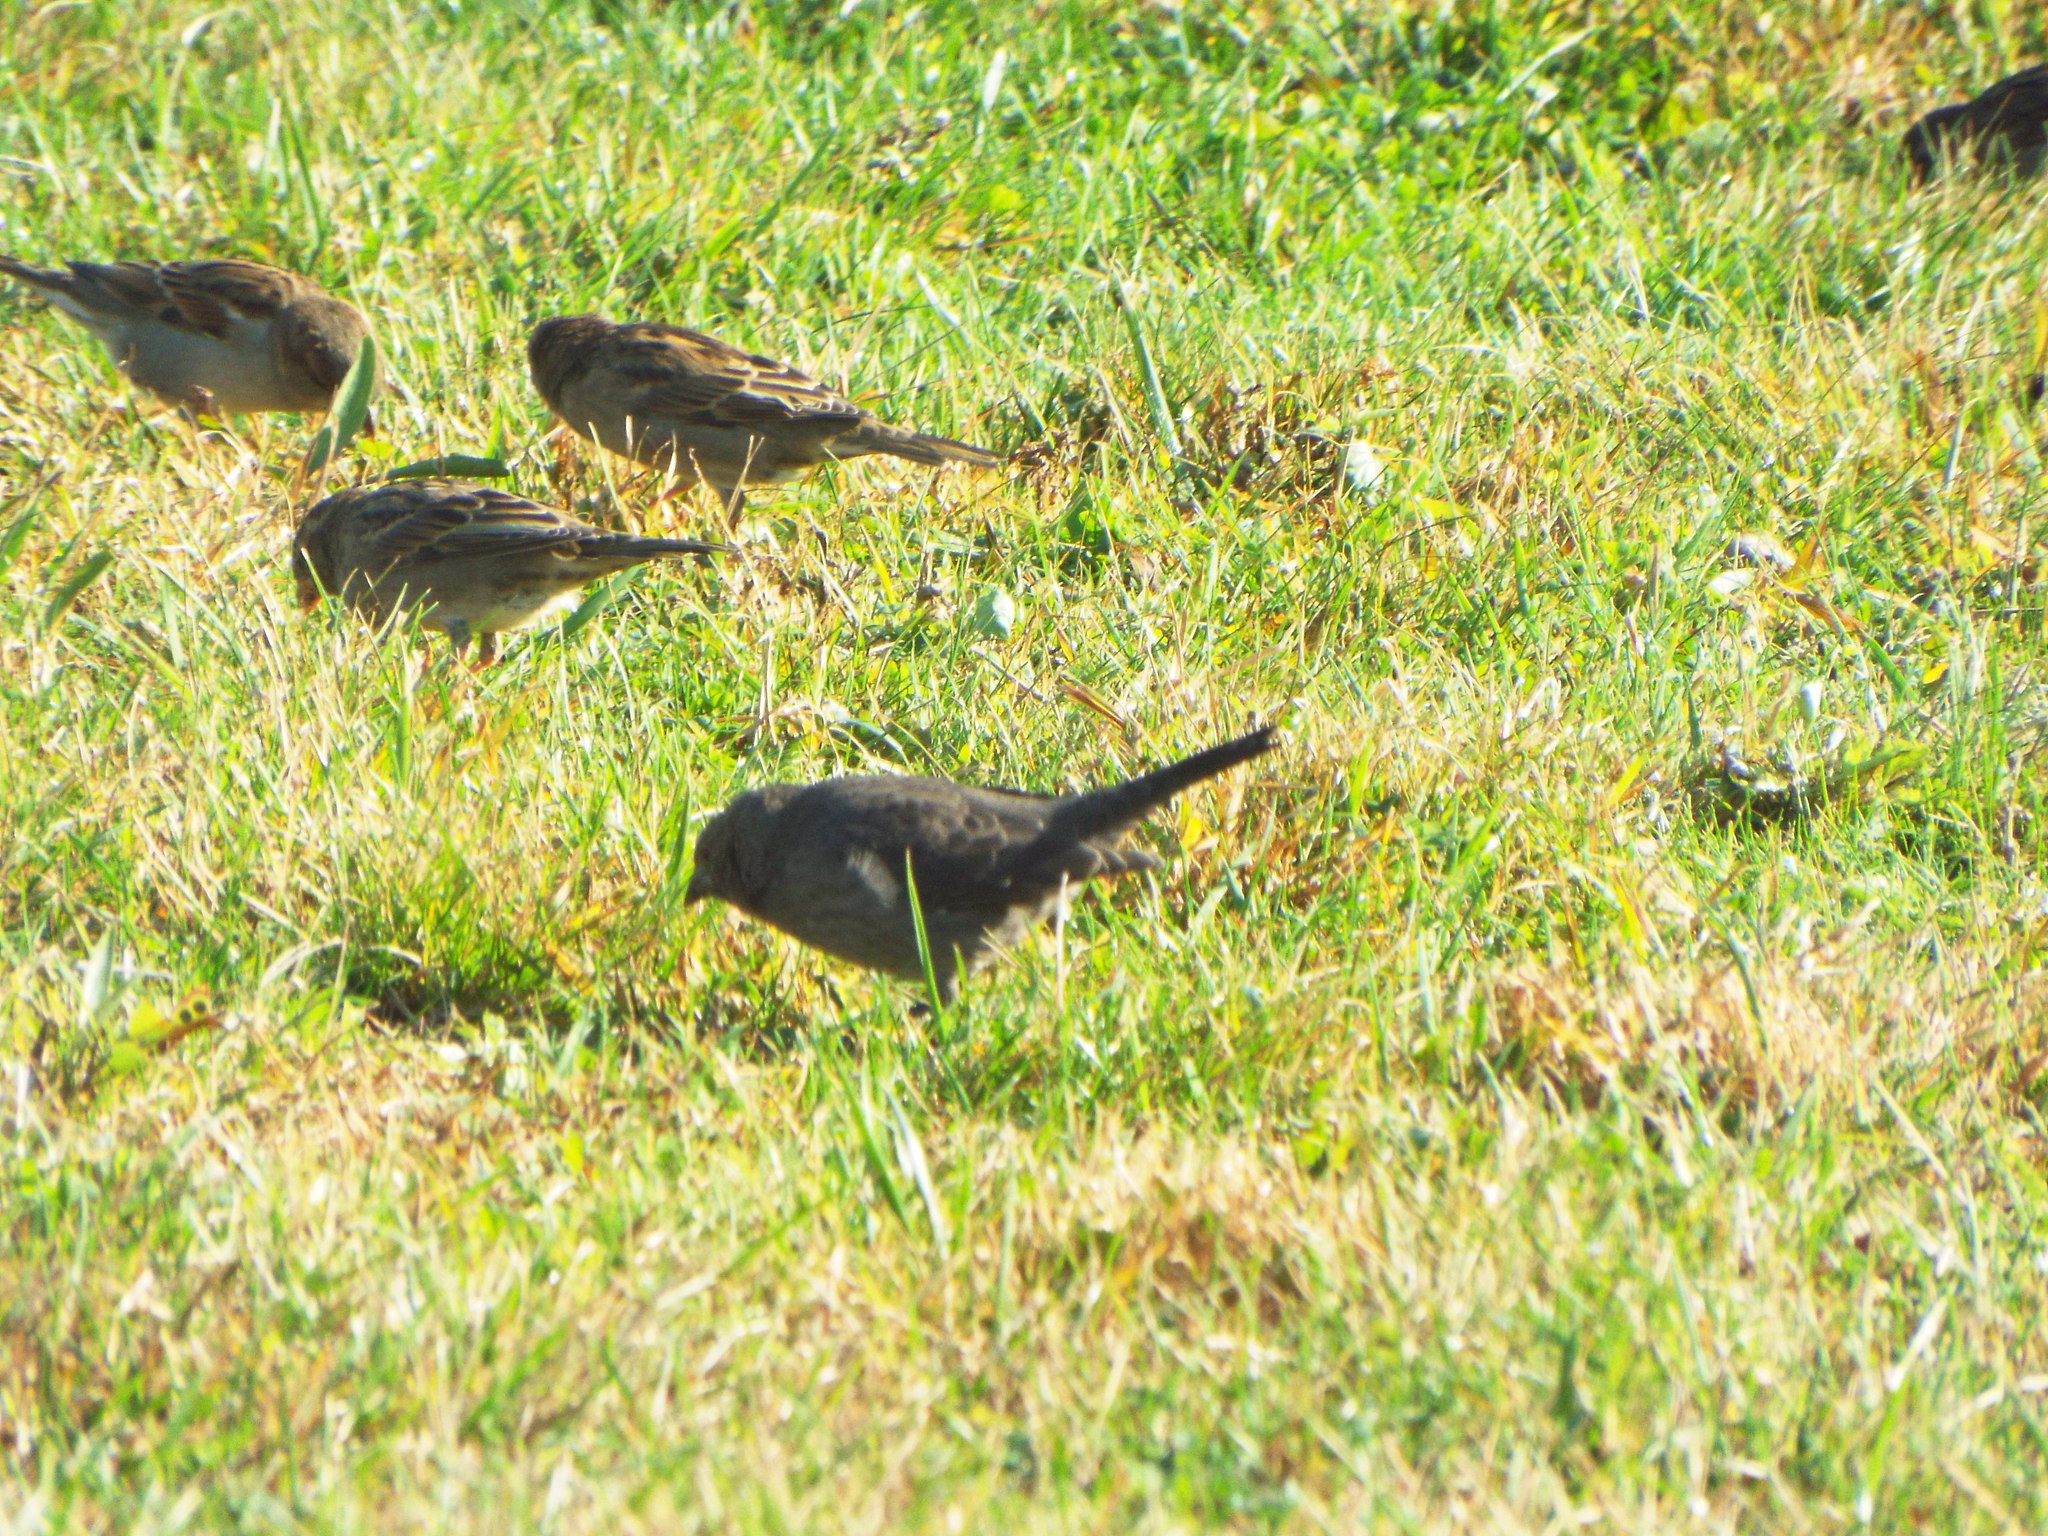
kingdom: Animalia
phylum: Chordata
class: Aves
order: Passeriformes
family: Icteridae
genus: Molothrus
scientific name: Molothrus ater
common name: Brown-headed cowbird
